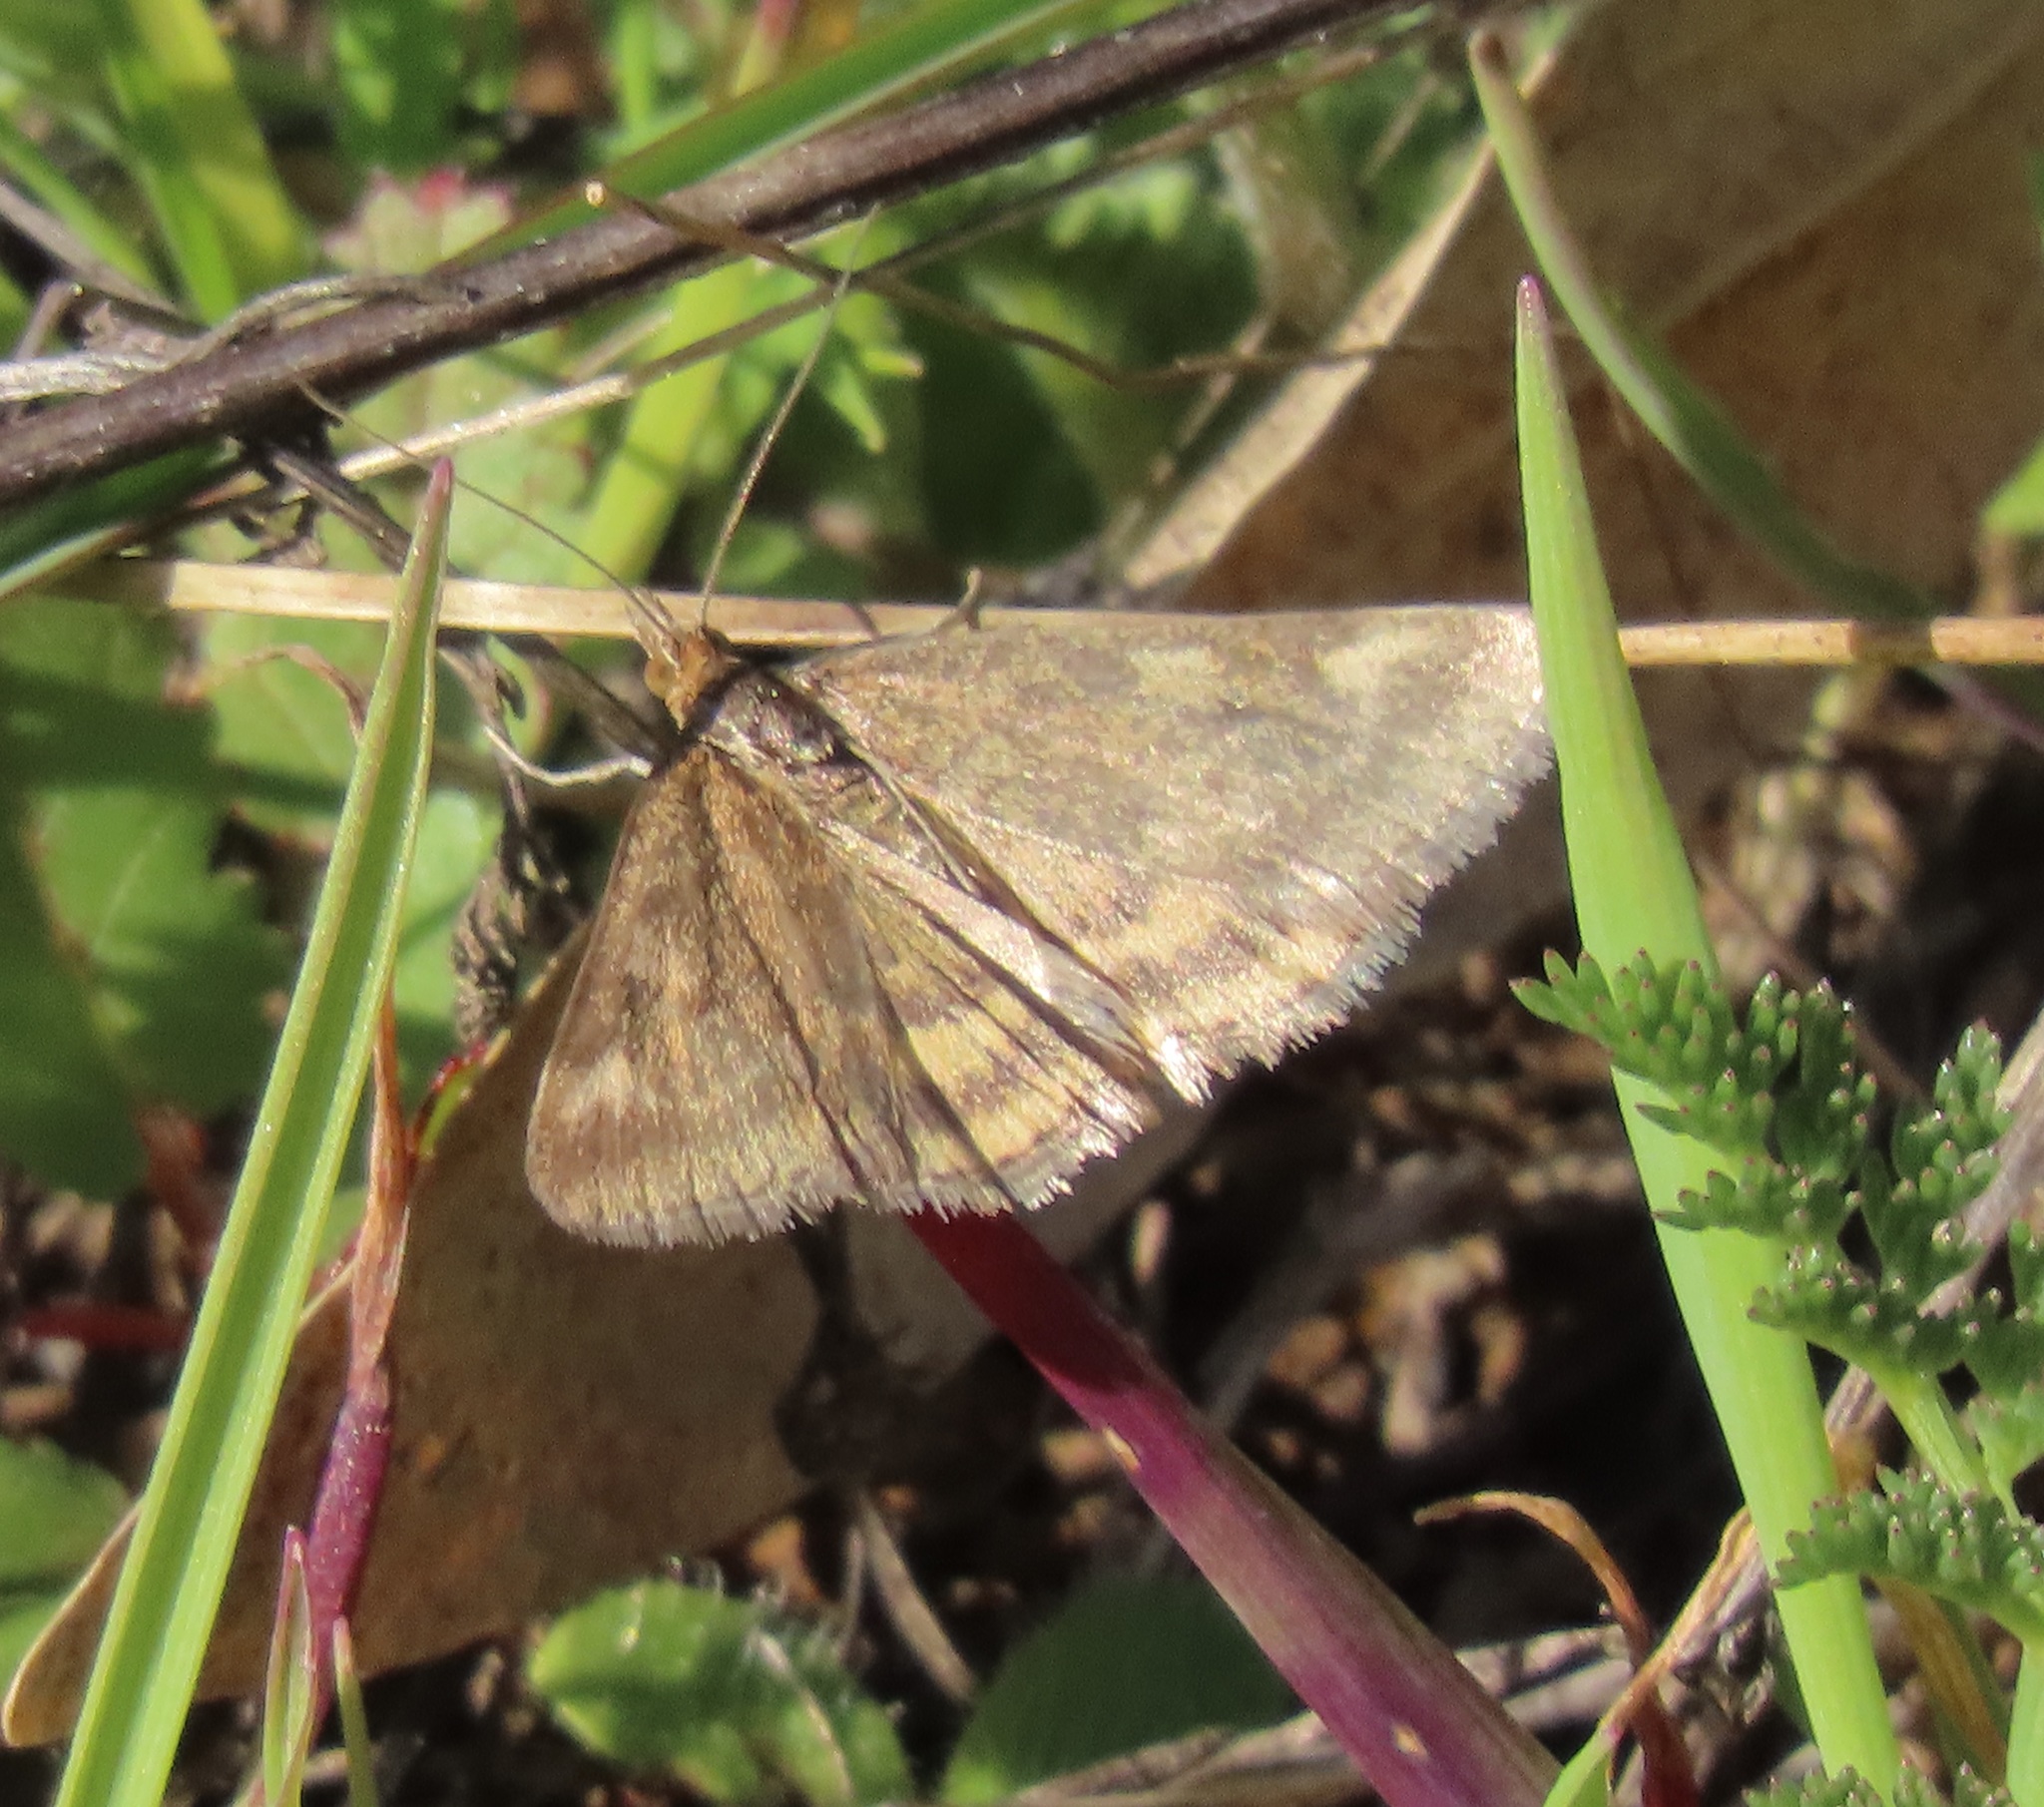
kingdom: Animalia
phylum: Arthropoda
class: Insecta
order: Lepidoptera
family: Crambidae
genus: Pyrausta
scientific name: Pyrausta subsequalis
